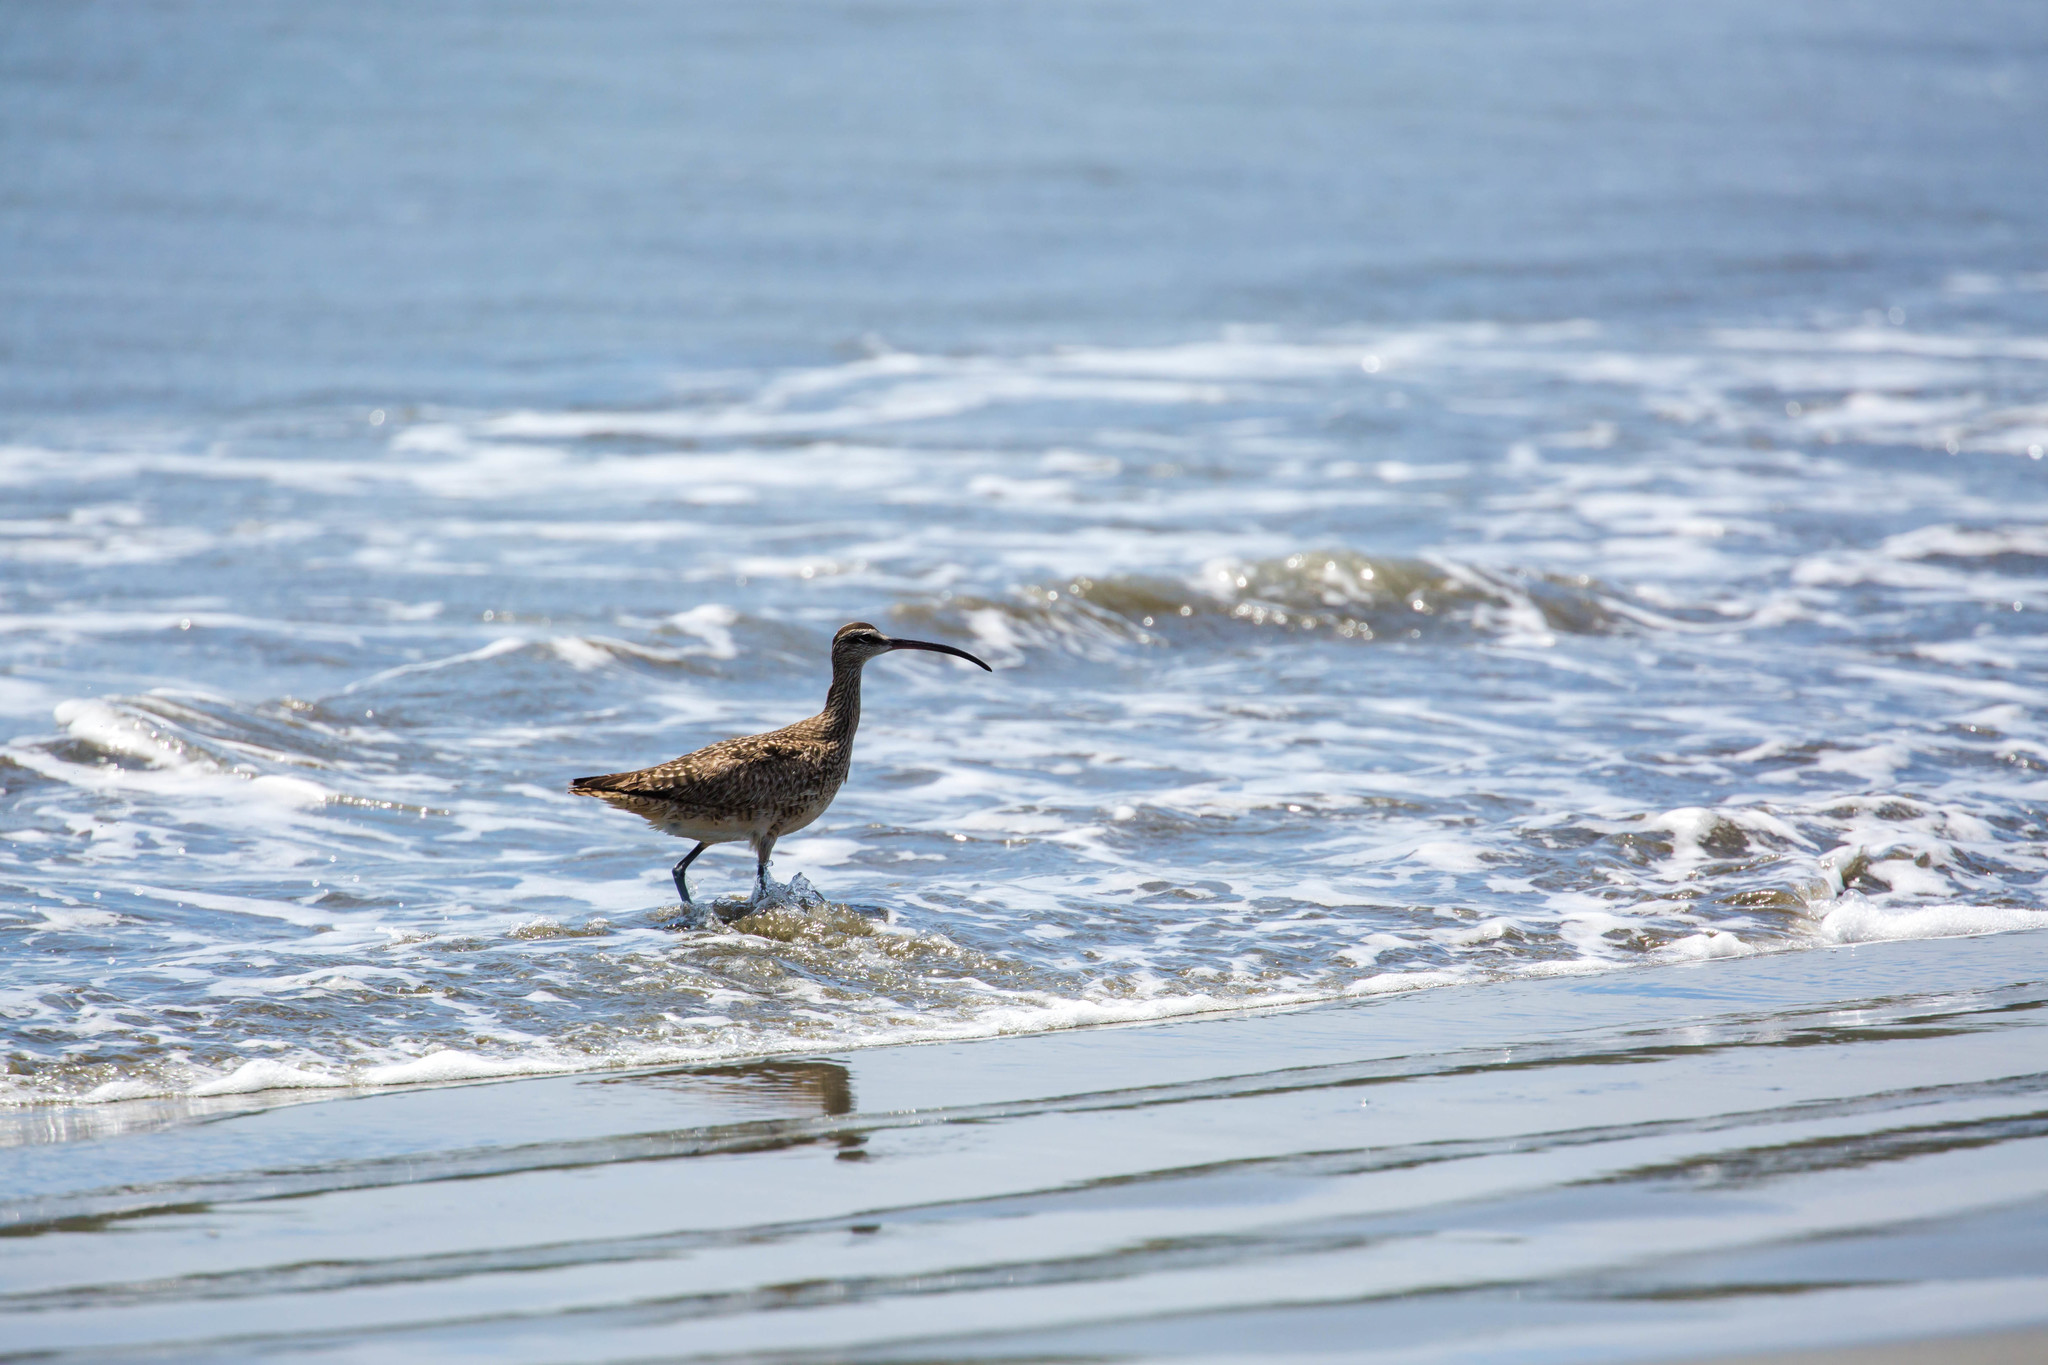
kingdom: Animalia
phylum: Chordata
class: Aves
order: Charadriiformes
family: Scolopacidae
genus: Numenius
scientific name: Numenius phaeopus
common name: Whimbrel
